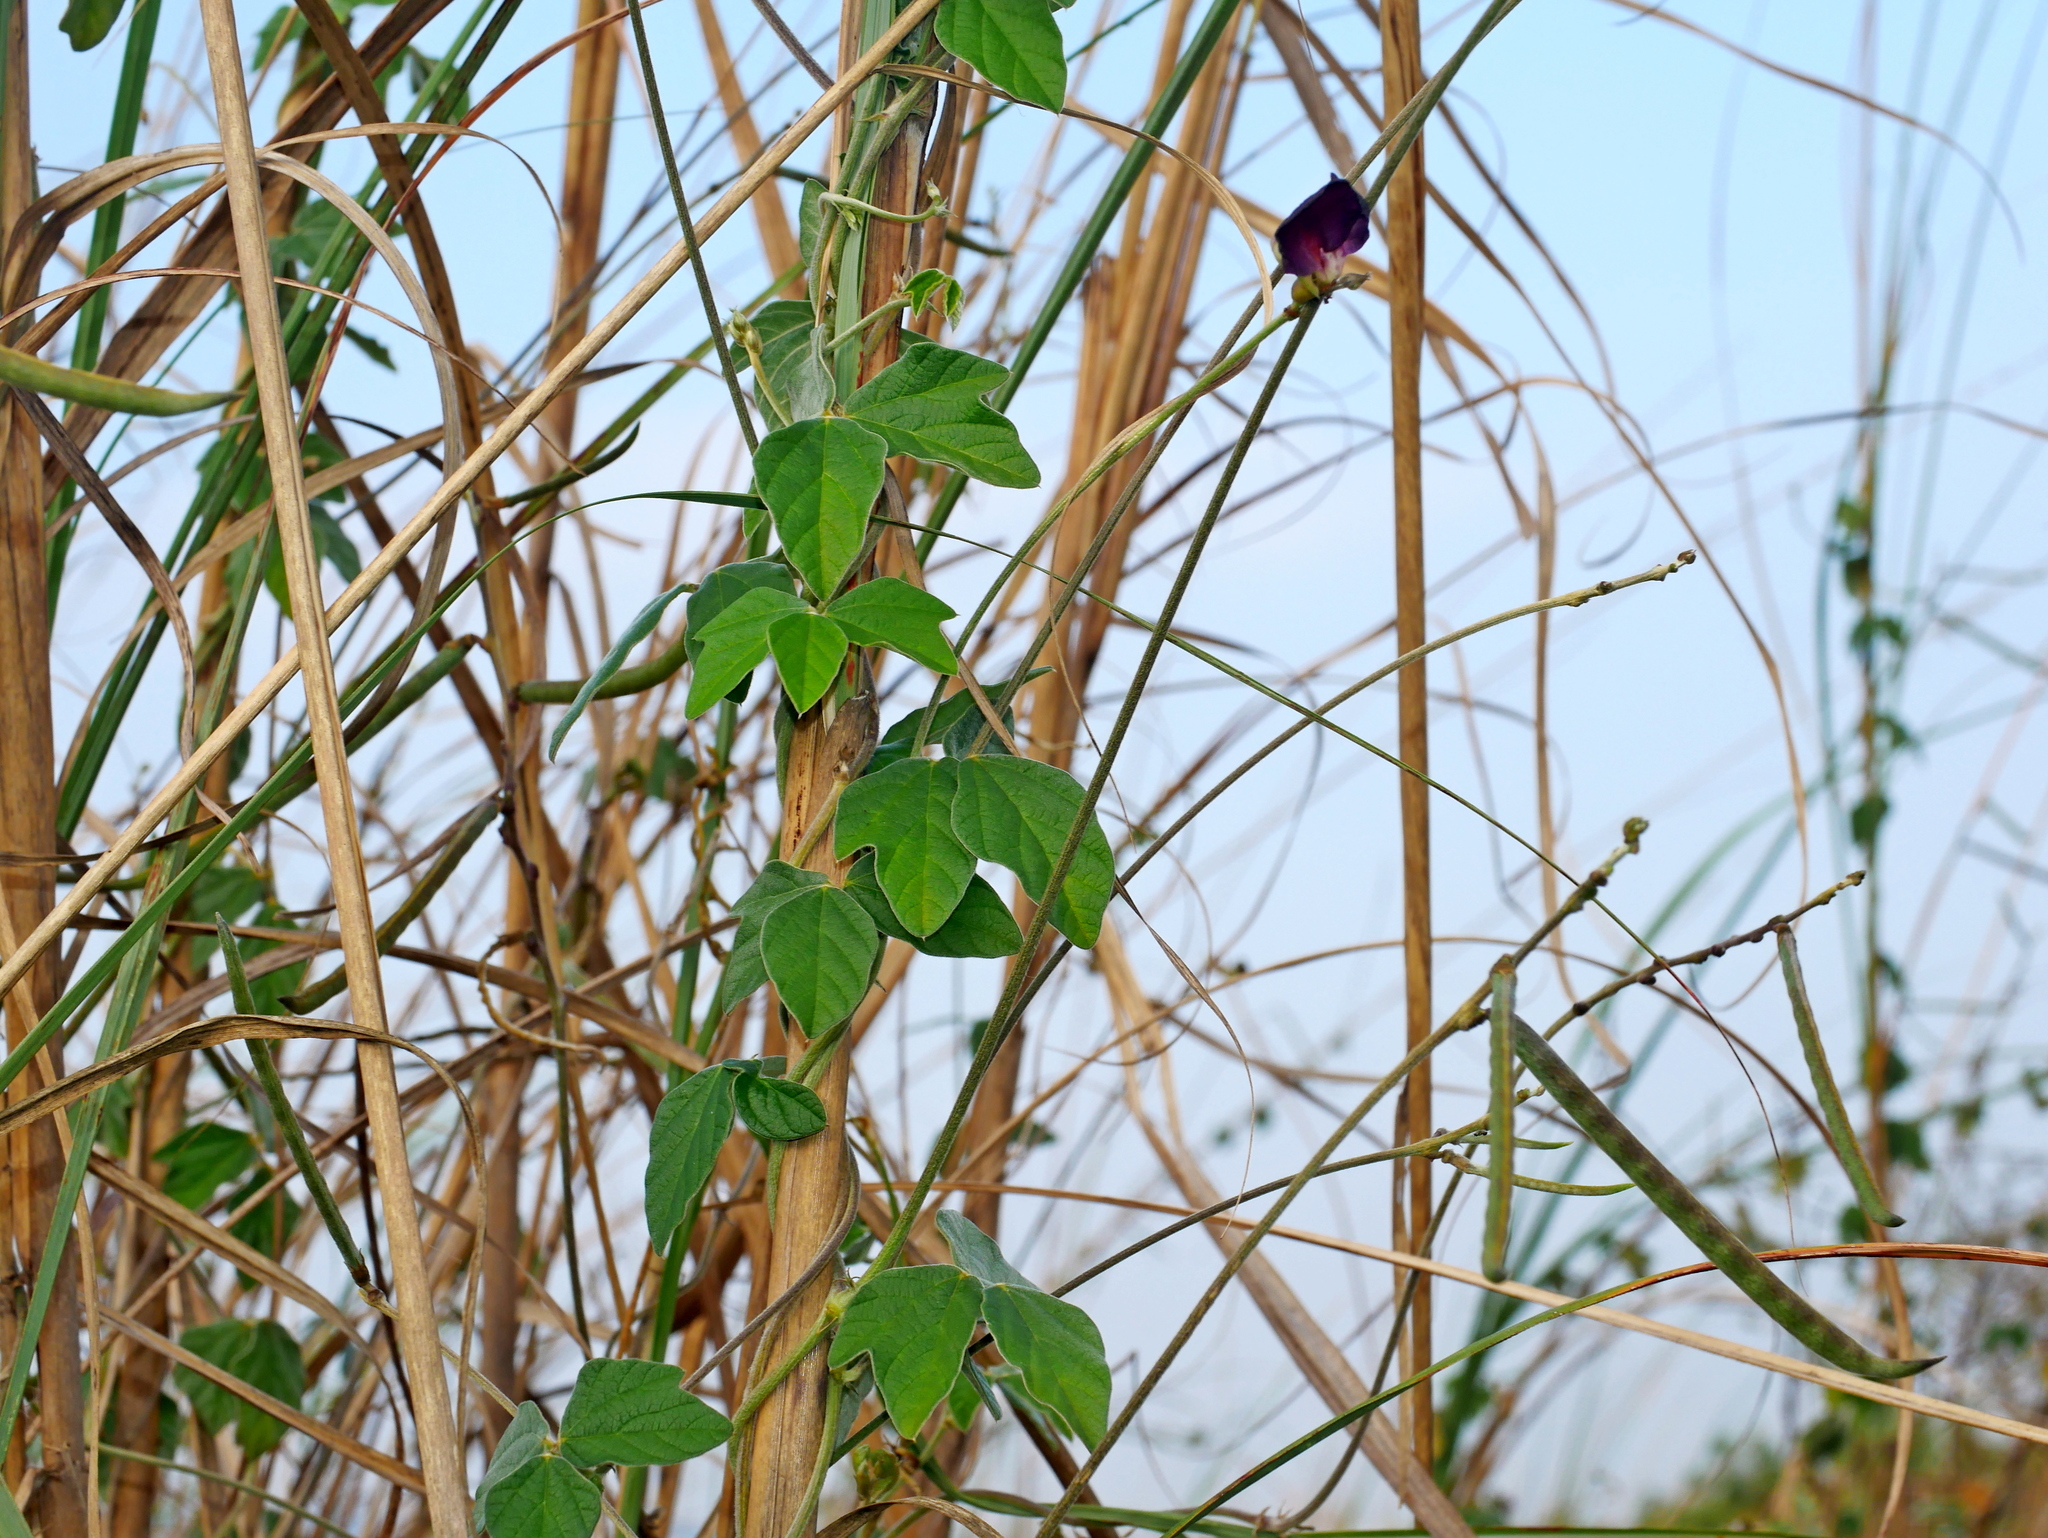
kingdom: Plantae
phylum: Tracheophyta
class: Magnoliopsida
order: Fabales
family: Fabaceae
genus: Macroptilium
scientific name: Macroptilium atropurpureum
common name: Purple bushbean
